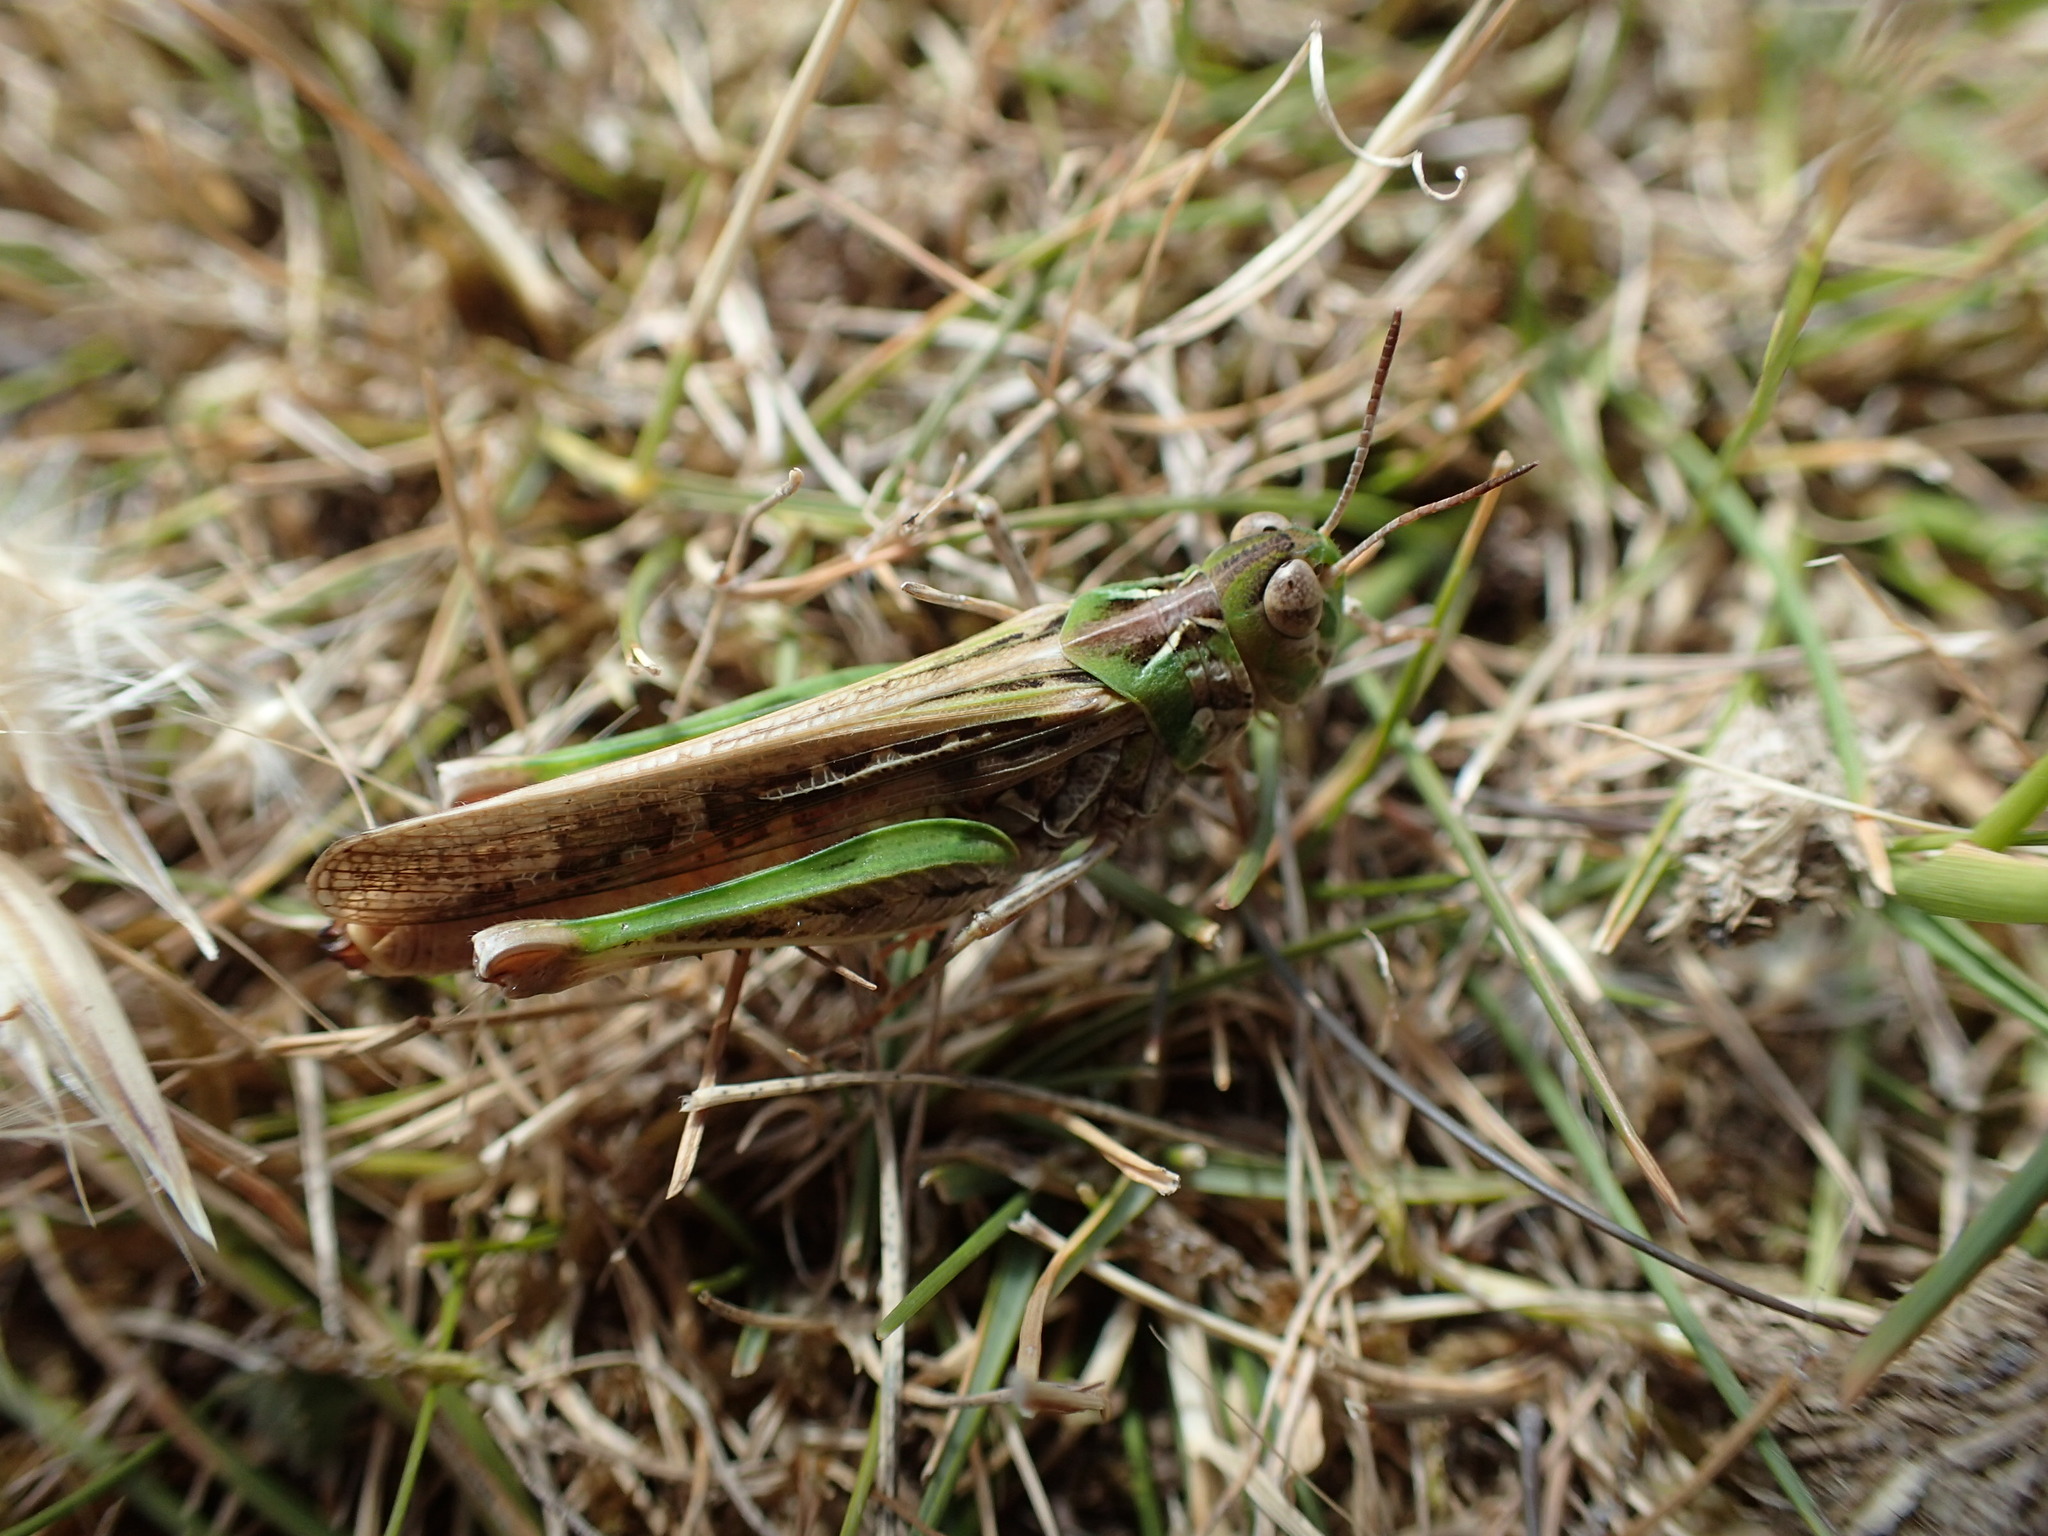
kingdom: Animalia
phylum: Arthropoda
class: Insecta
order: Orthoptera
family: Acrididae
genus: Austroicetes
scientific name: Austroicetes vulgaris
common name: Southeastern austroicetes
